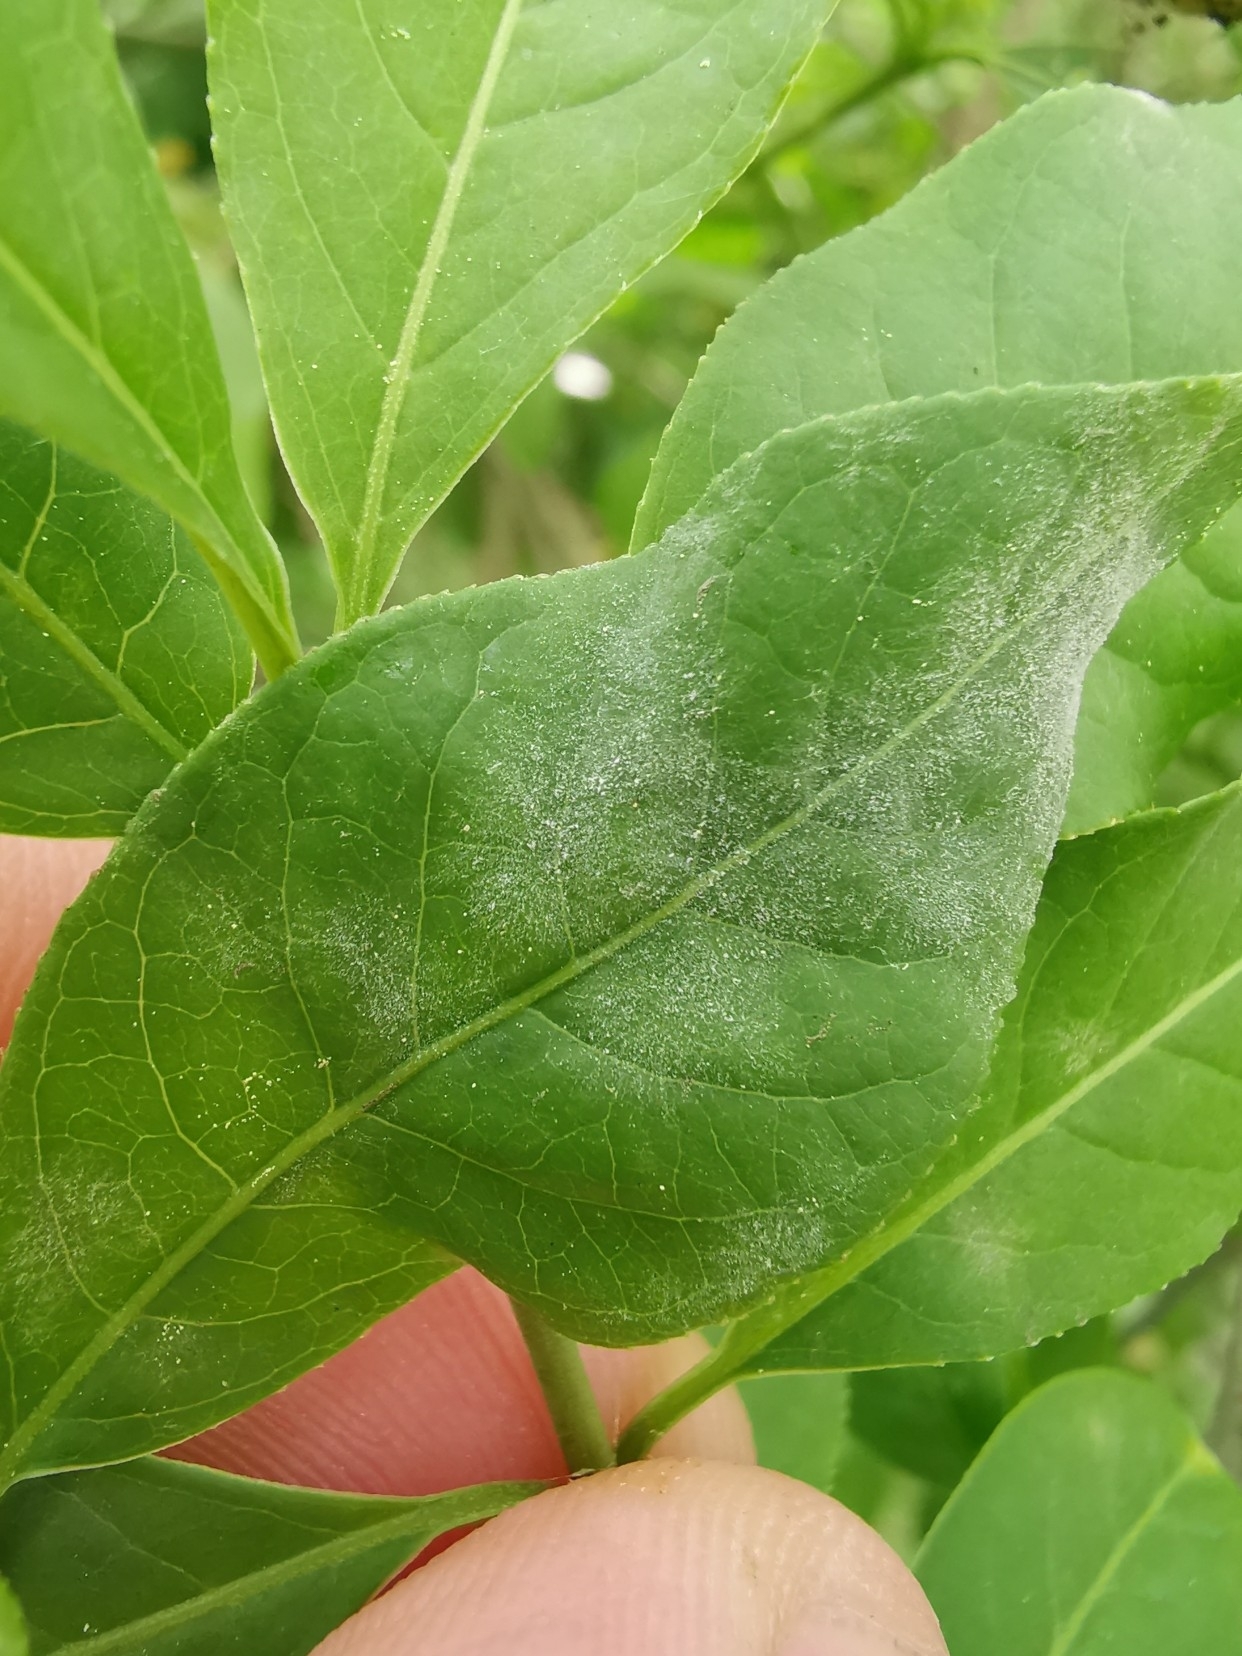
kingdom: Fungi
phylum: Ascomycota
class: Leotiomycetes
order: Helotiales
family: Erysiphaceae
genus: Erysiphe
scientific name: Erysiphe euonymi
